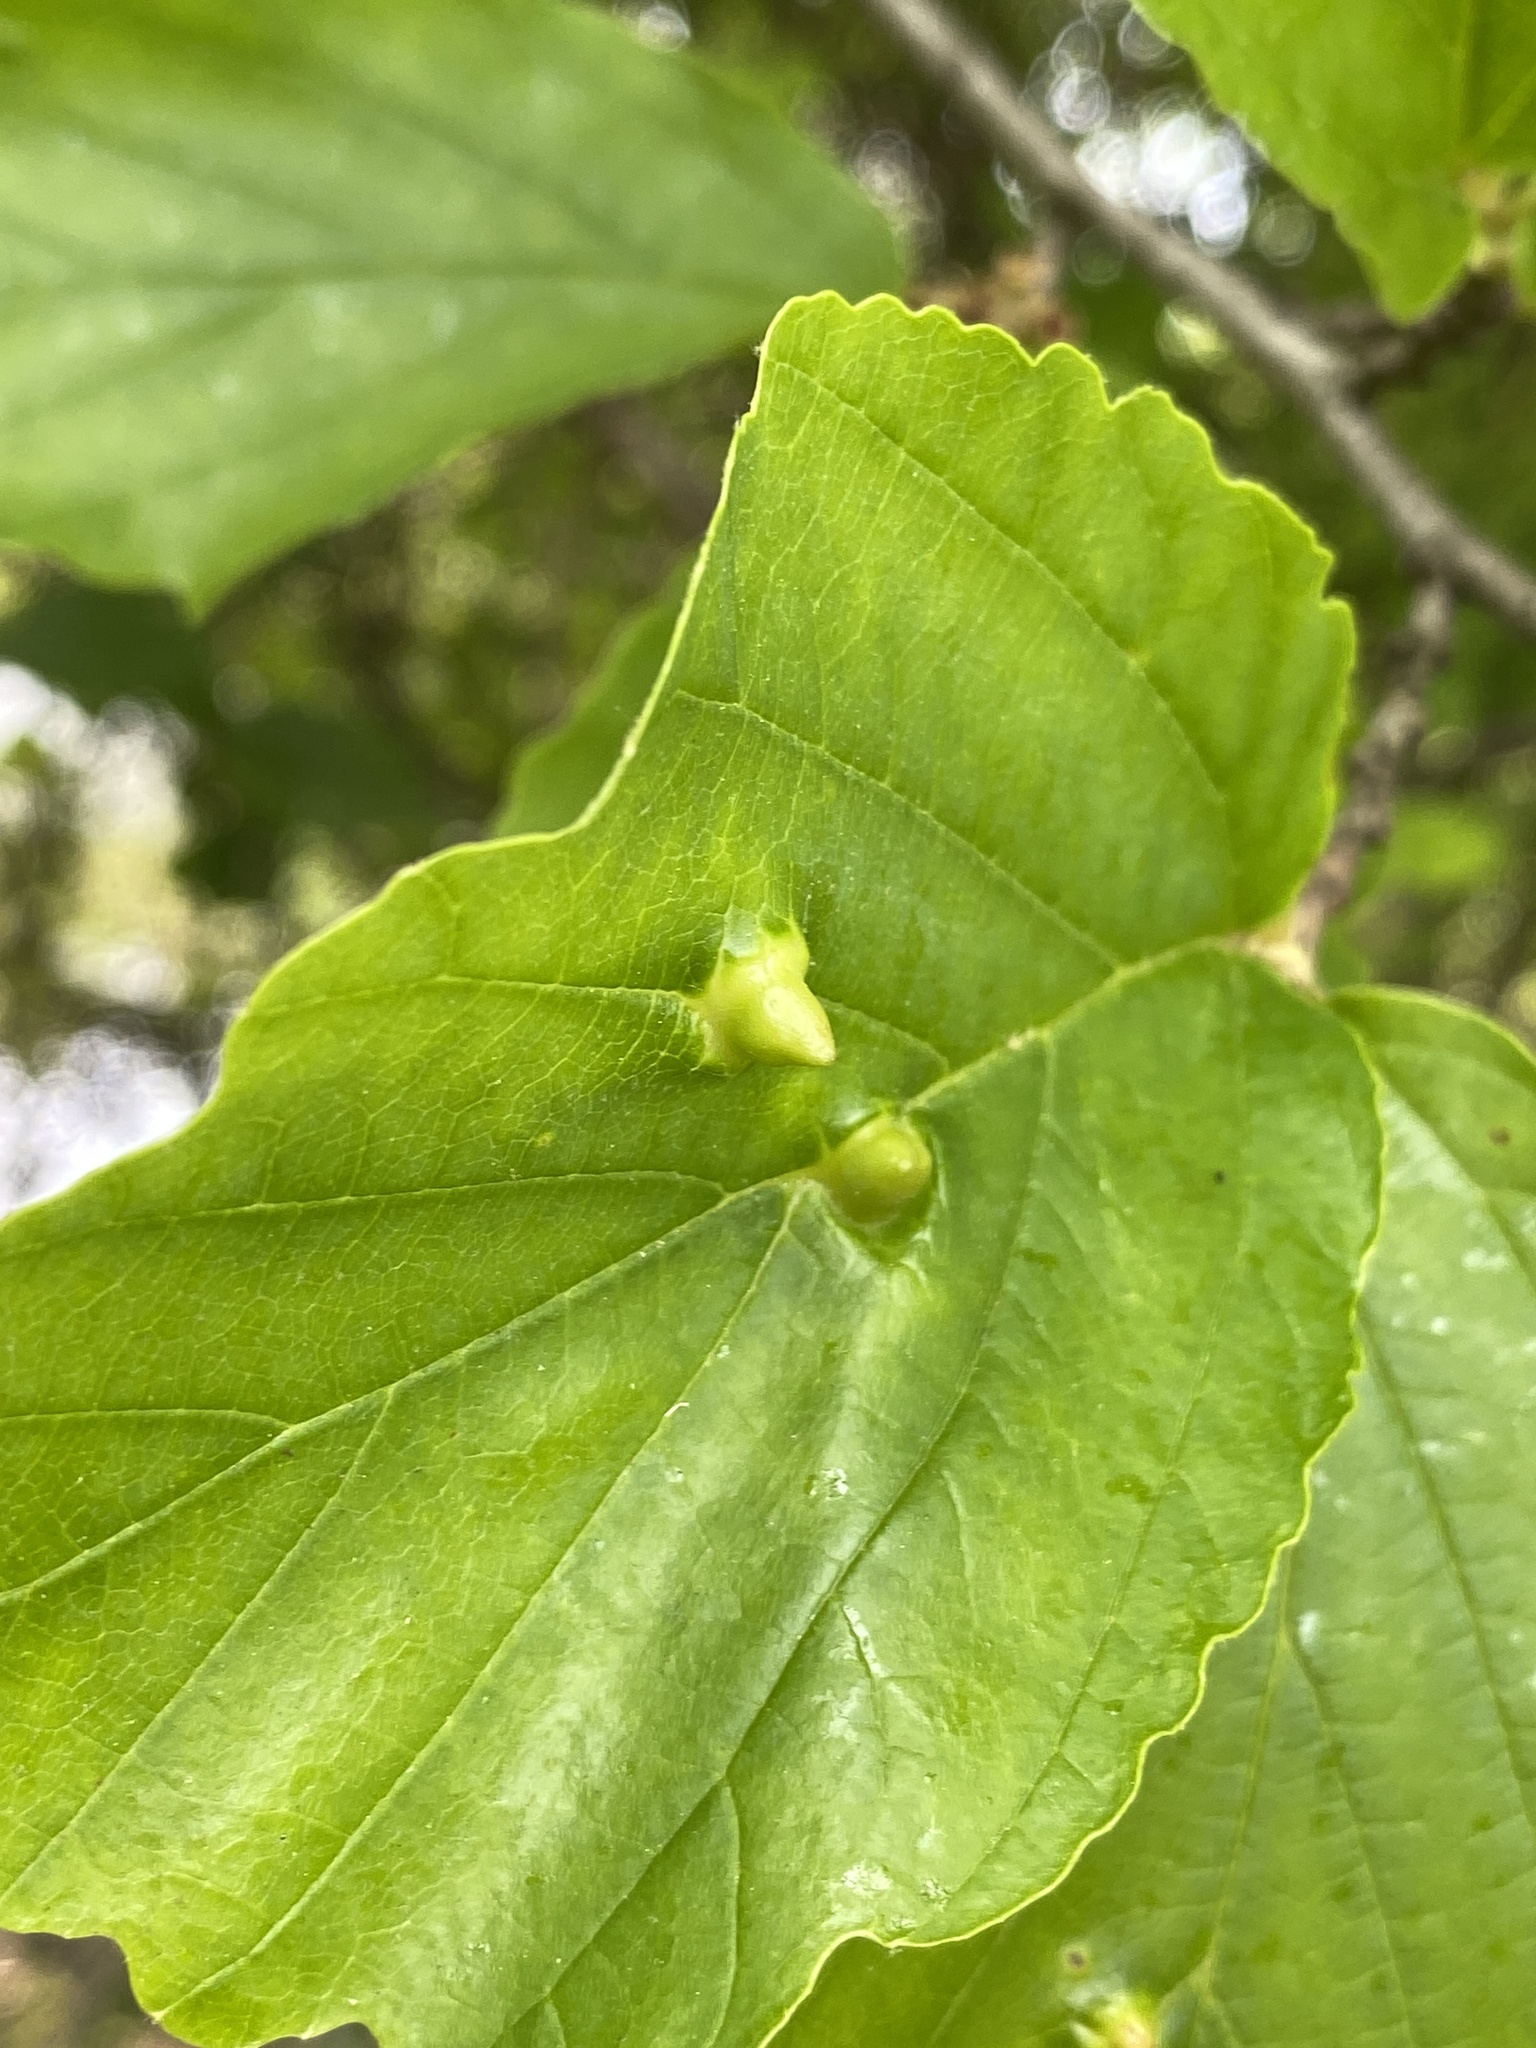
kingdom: Animalia
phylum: Arthropoda
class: Insecta
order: Hemiptera
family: Aphididae
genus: Hormaphis
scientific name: Hormaphis hamamelidis
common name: Witch-hazel cone gall aphid
